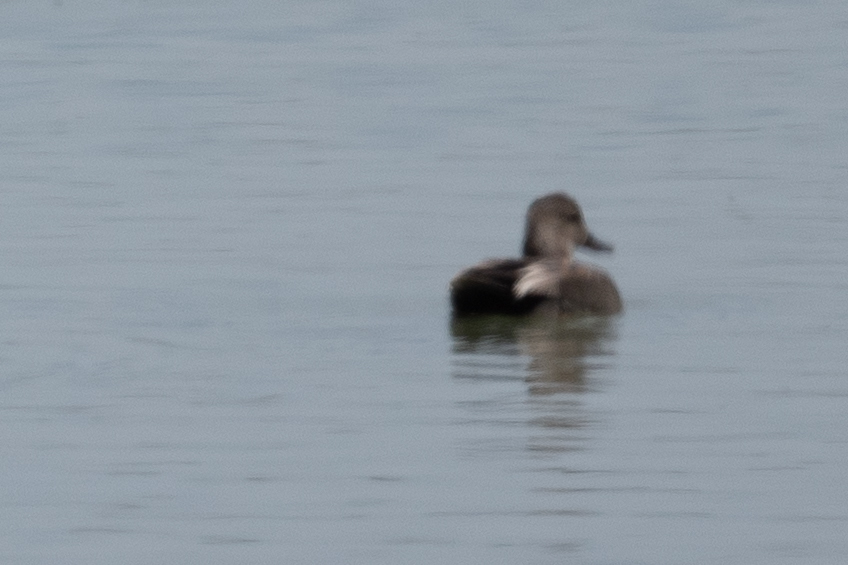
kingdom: Animalia
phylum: Chordata
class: Aves
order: Anseriformes
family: Anatidae
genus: Mareca
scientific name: Mareca strepera
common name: Gadwall
